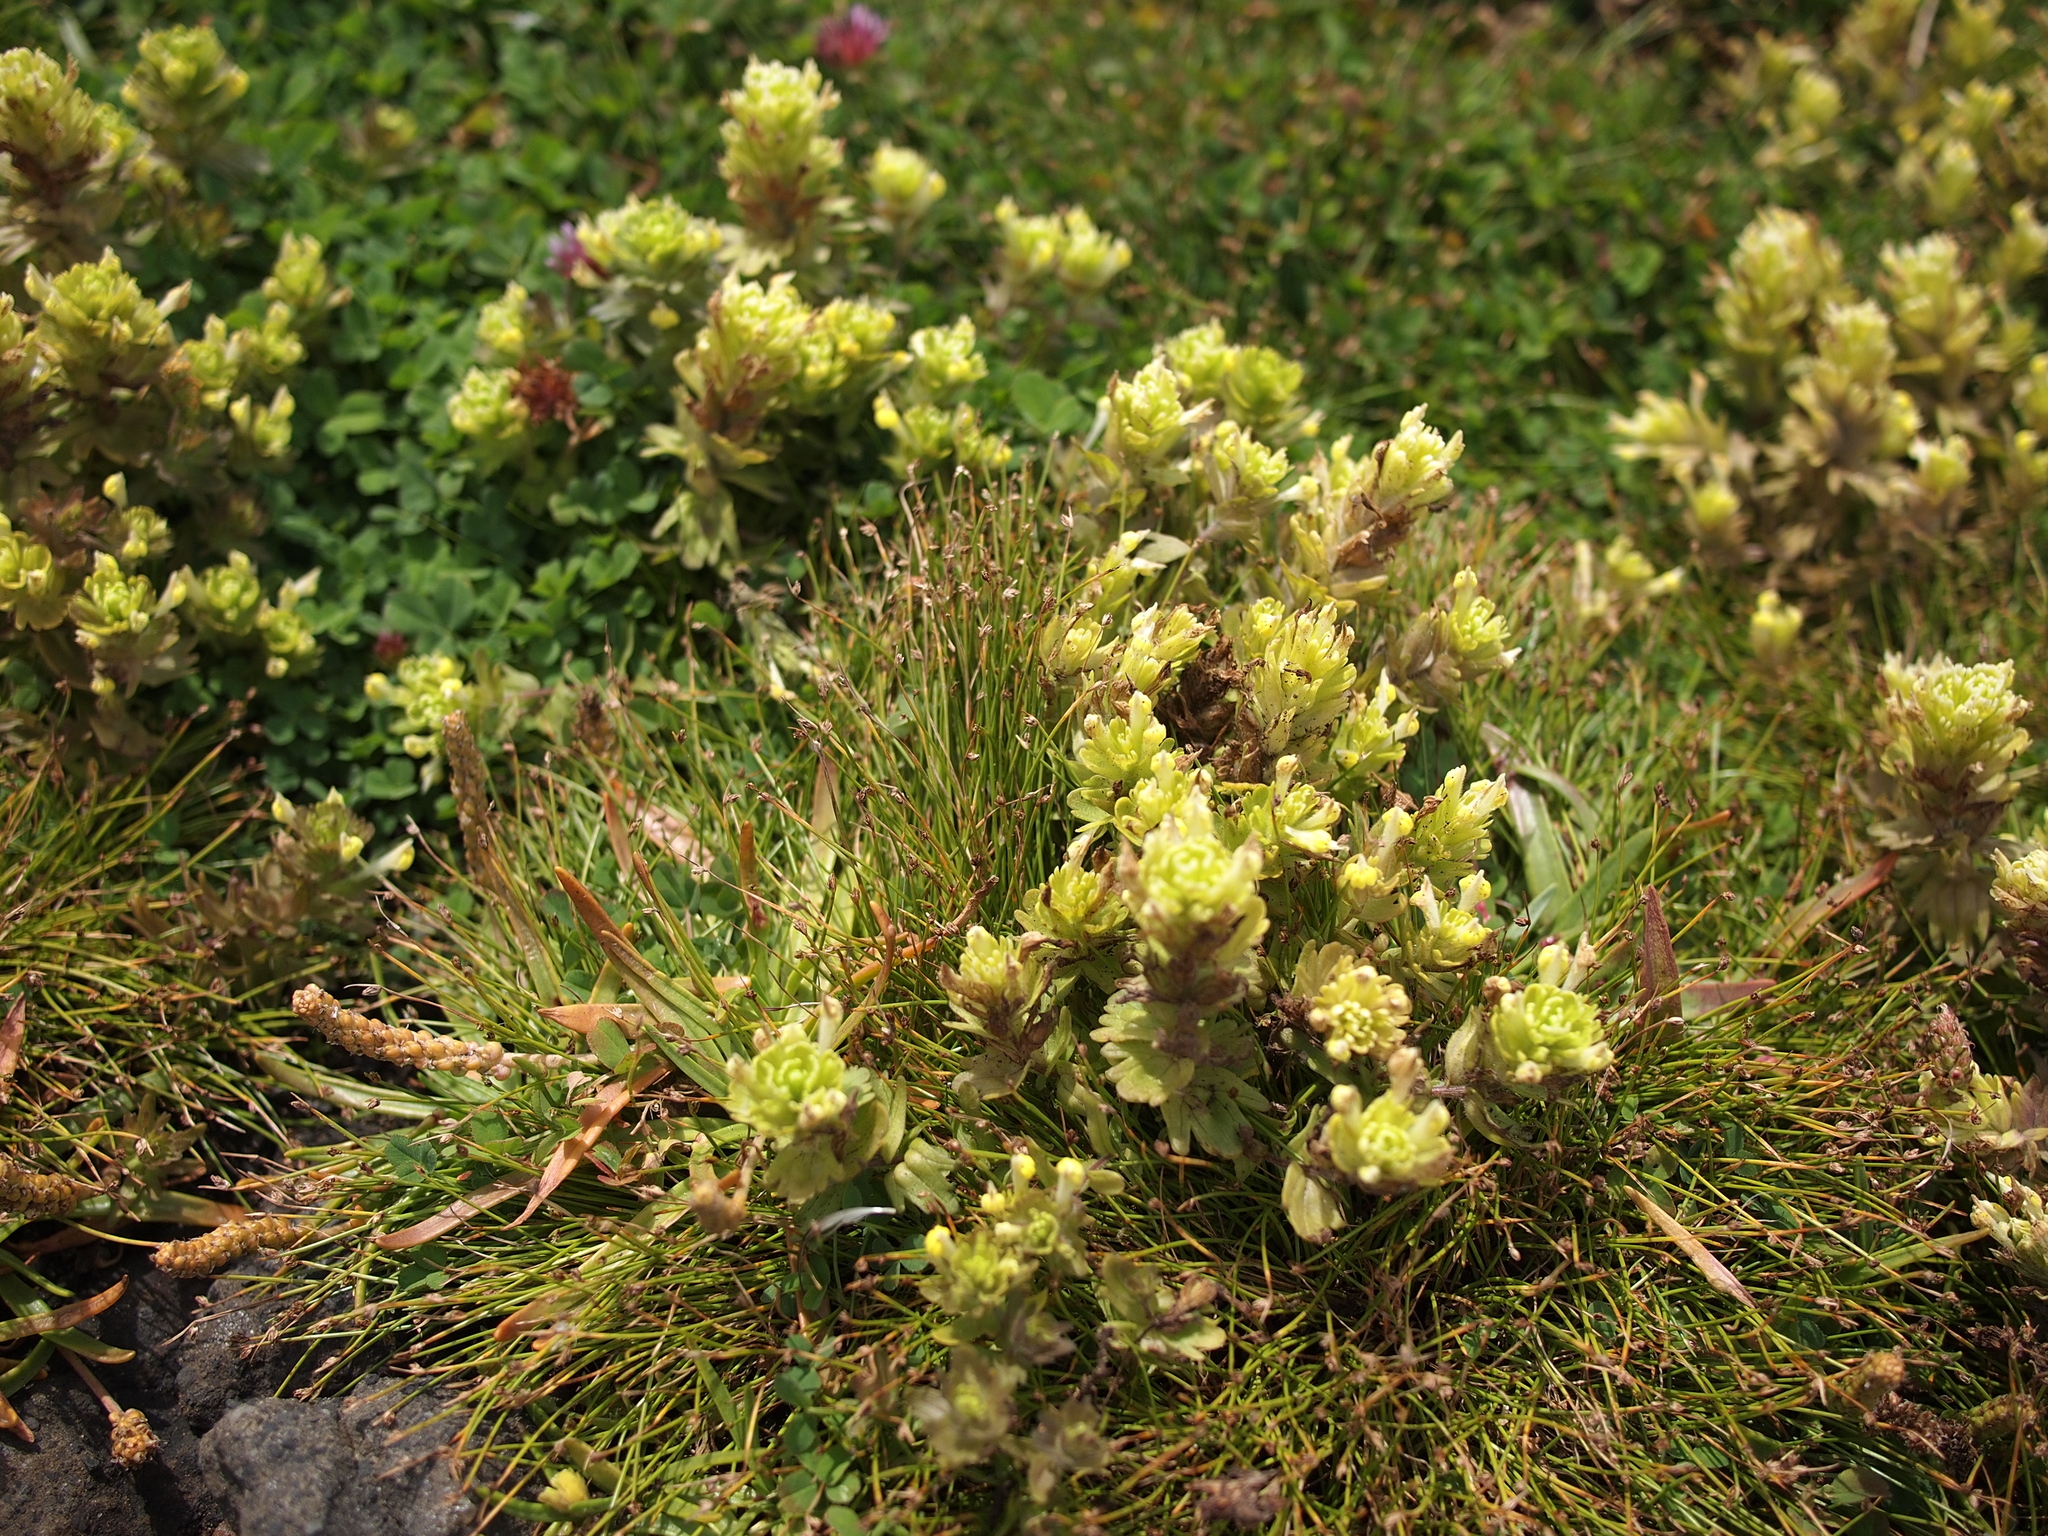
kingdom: Plantae
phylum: Tracheophyta
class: Magnoliopsida
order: Lamiales
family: Orobanchaceae
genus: Castilleja
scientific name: Castilleja ambigua
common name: Johnny-nip
